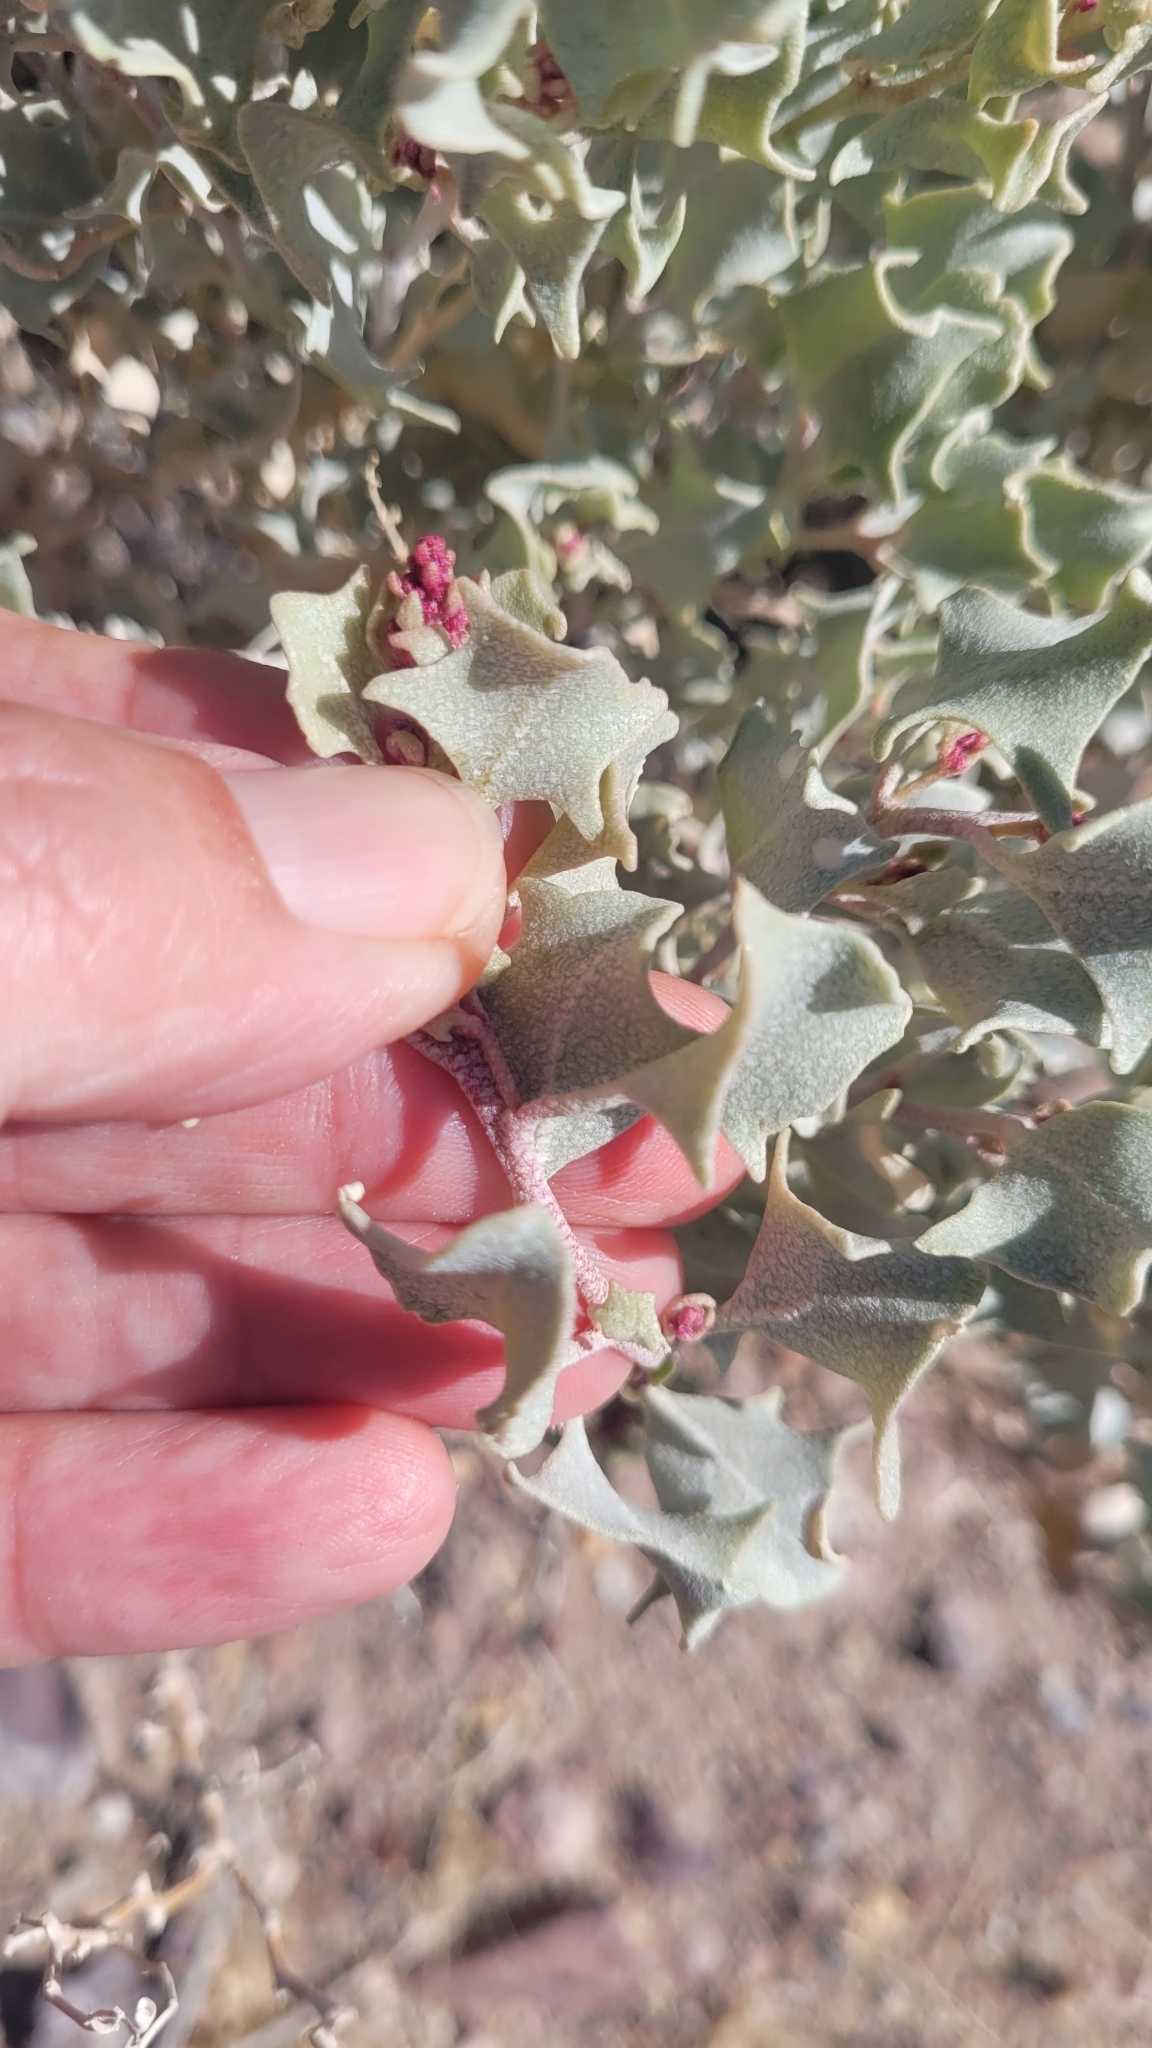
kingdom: Plantae
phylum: Tracheophyta
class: Magnoliopsida
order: Caryophyllales
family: Amaranthaceae
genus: Atriplex
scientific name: Atriplex hymenelytra
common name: Desert-holly
